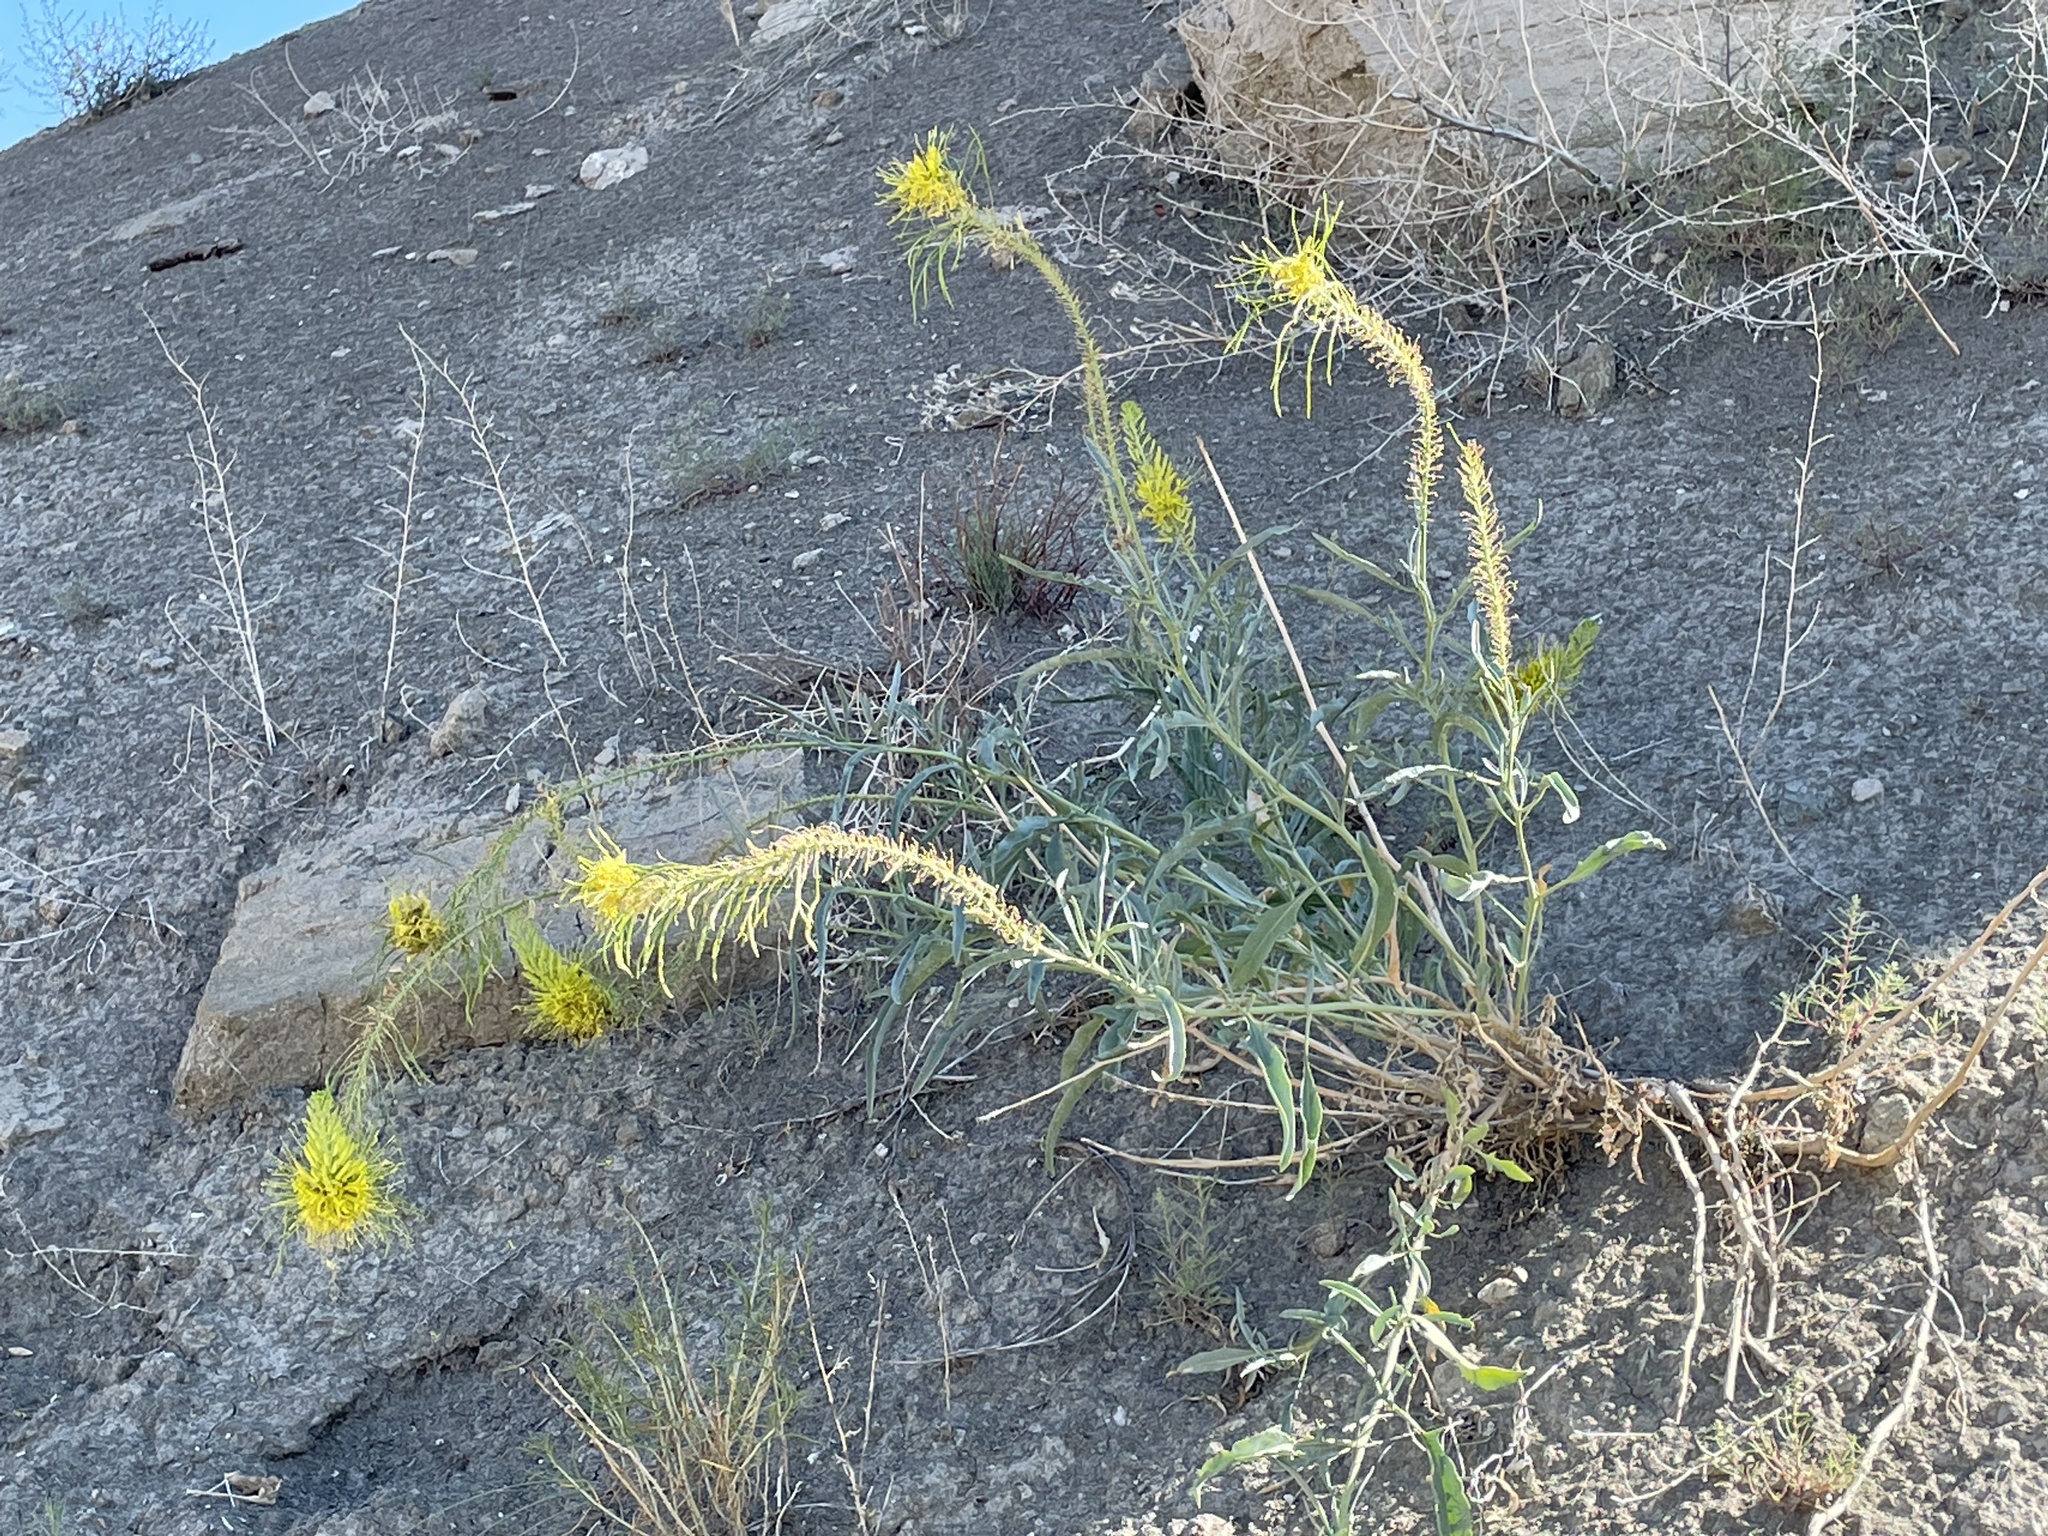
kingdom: Plantae
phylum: Tracheophyta
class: Magnoliopsida
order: Brassicales
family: Brassicaceae
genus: Stanleya
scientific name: Stanleya pinnata
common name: Prince's-plume
